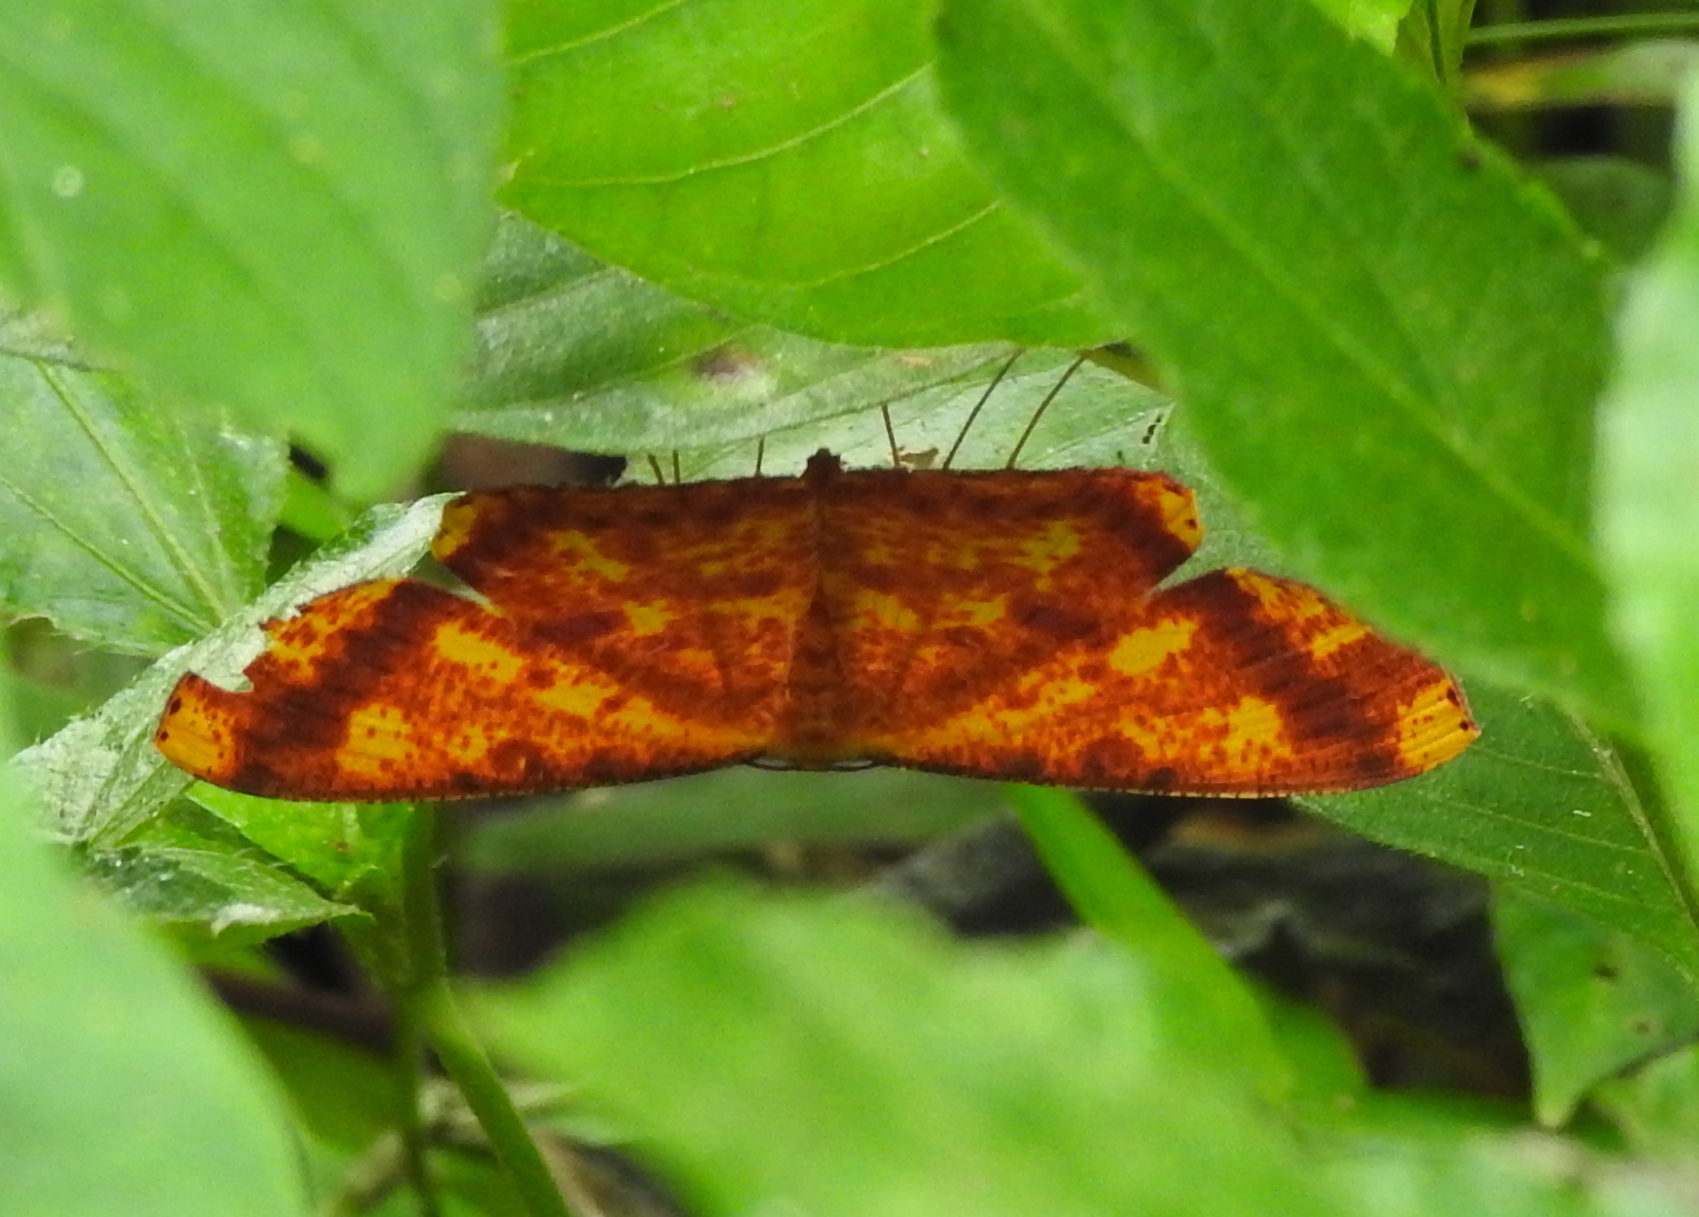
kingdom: Animalia
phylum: Arthropoda
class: Insecta
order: Lepidoptera
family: Geometridae
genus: Eumelea
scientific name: Eumelea ludovicata
